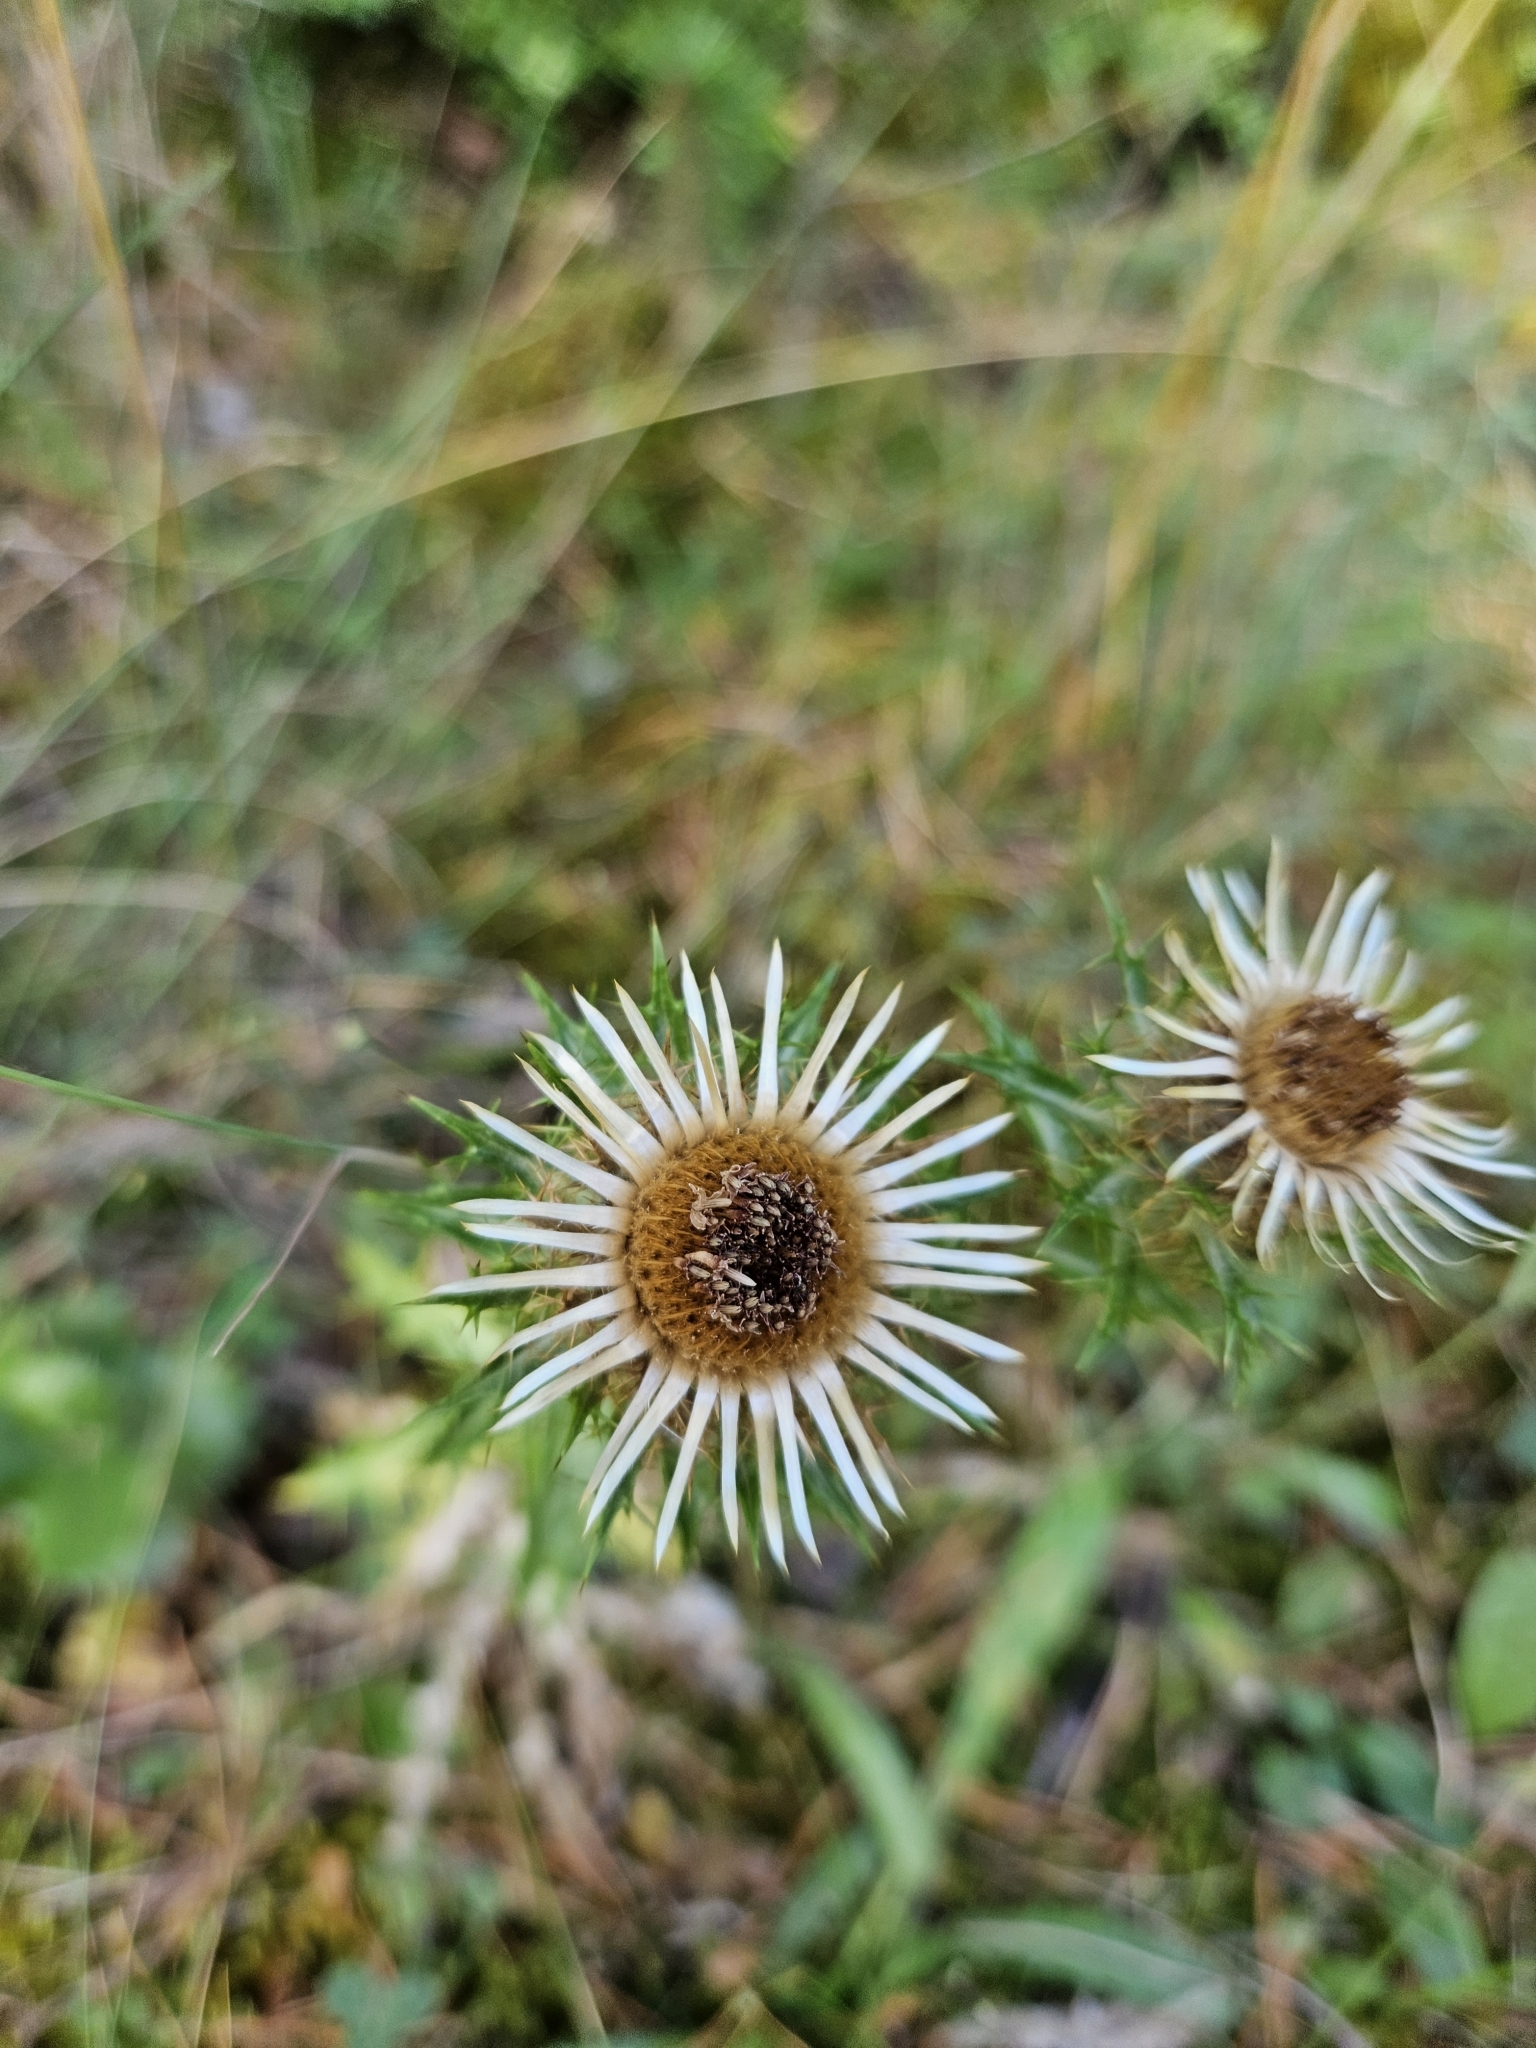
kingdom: Plantae
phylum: Tracheophyta
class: Magnoliopsida
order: Asterales
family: Asteraceae
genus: Carlina
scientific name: Carlina vulgaris
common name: Carline thistle
